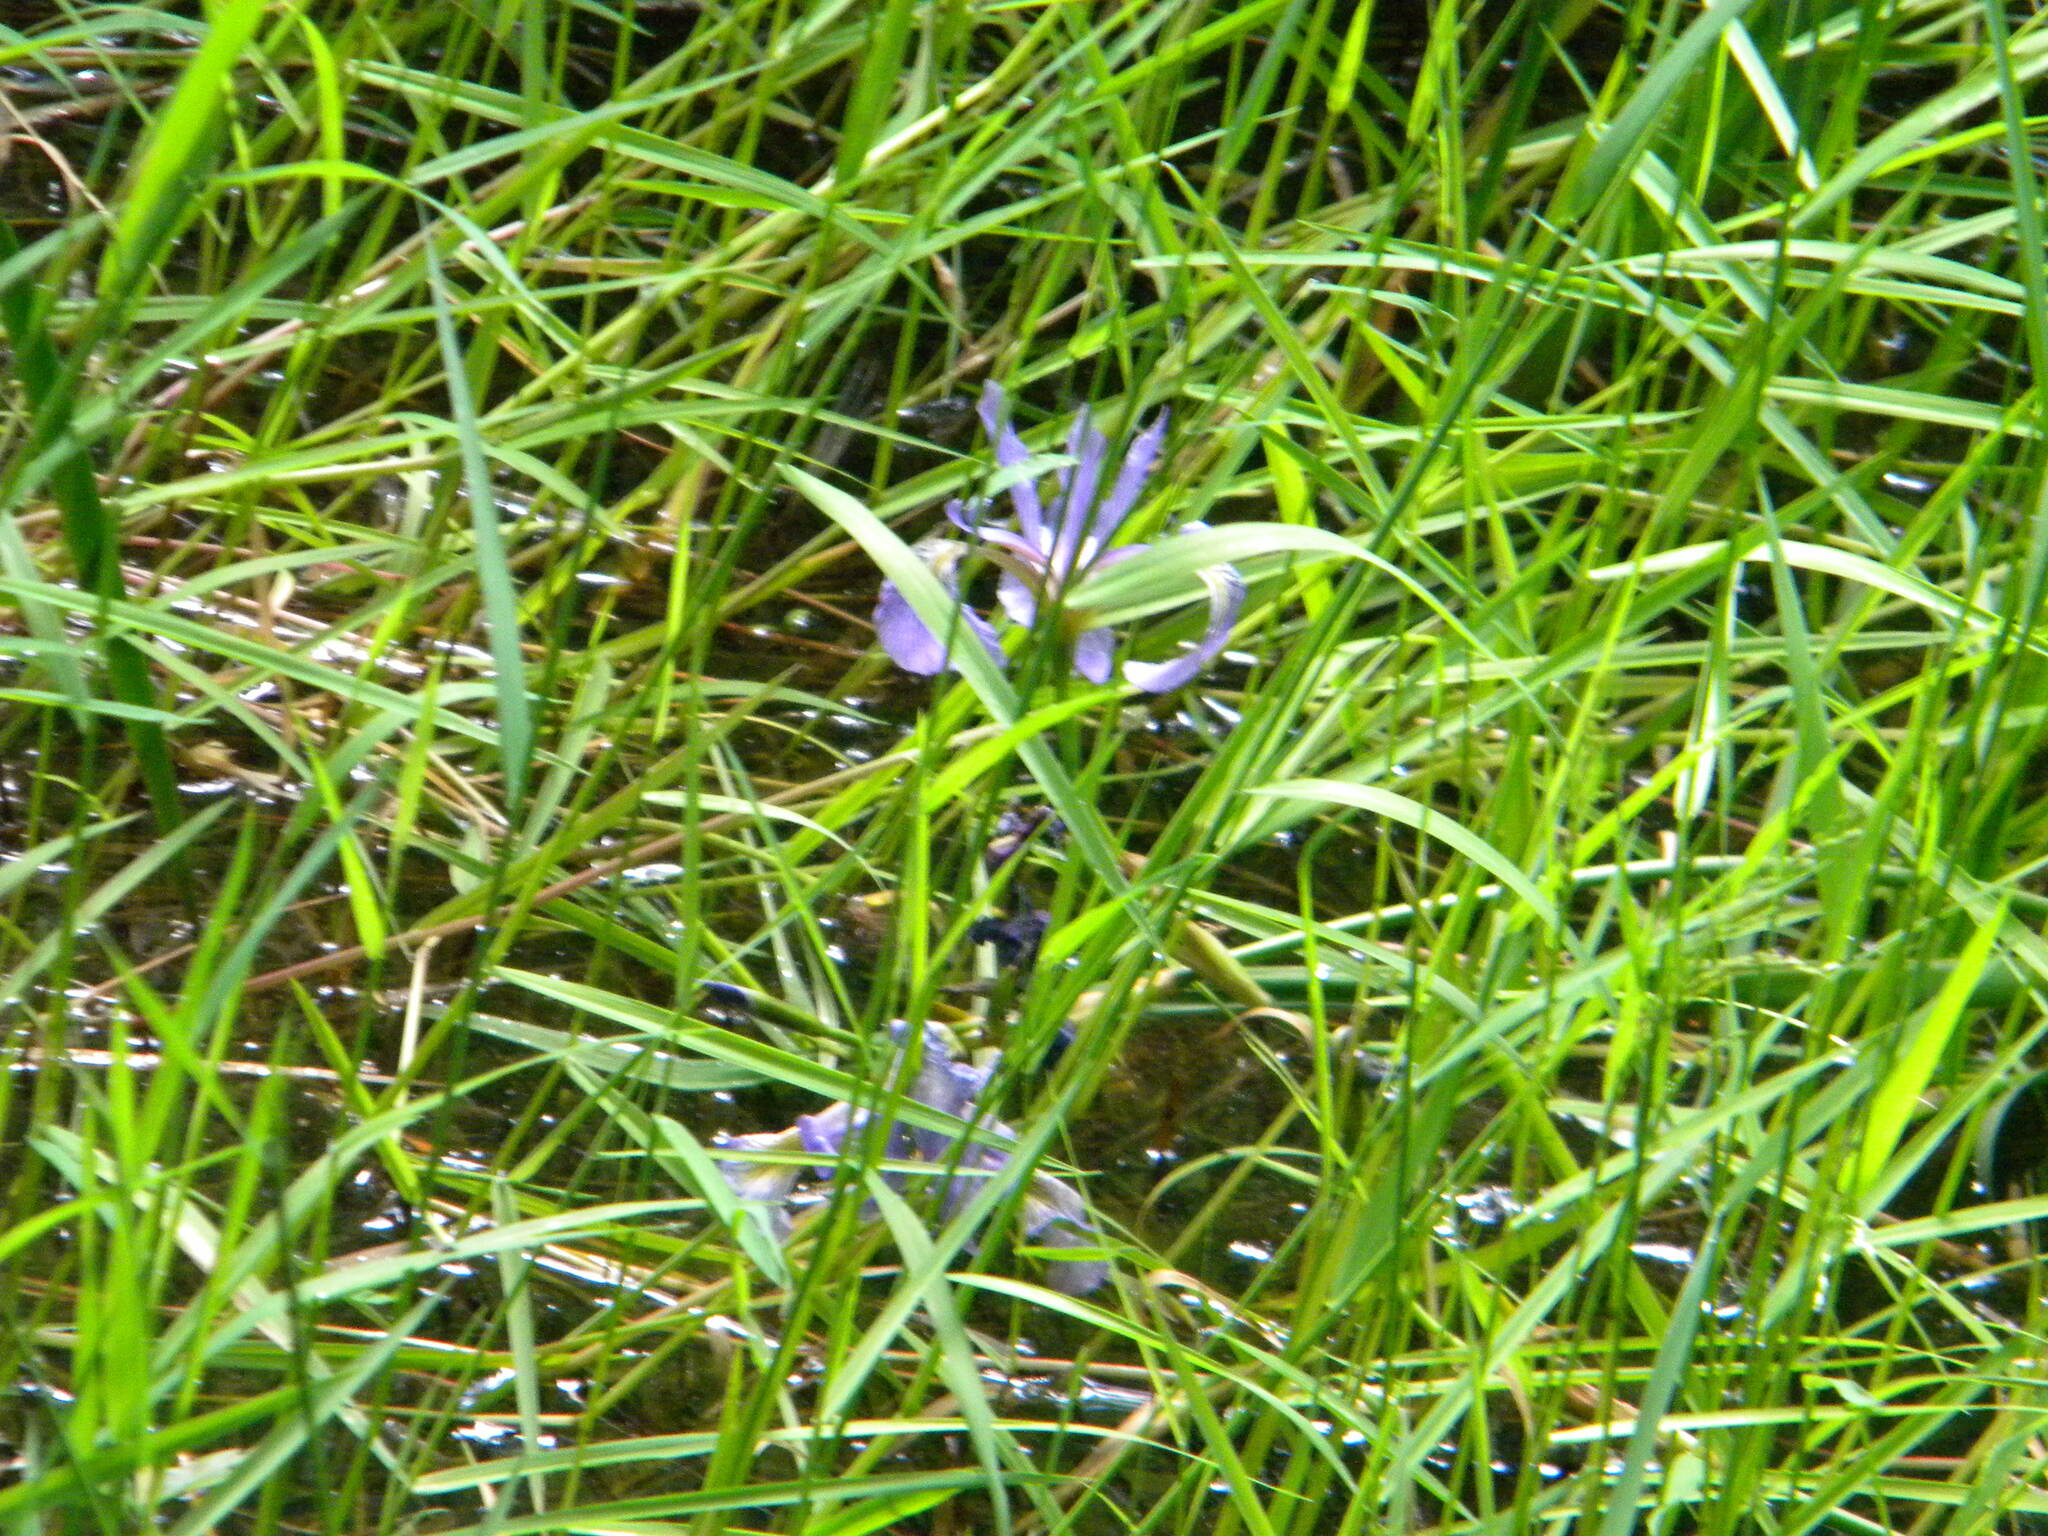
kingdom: Plantae
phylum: Tracheophyta
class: Liliopsida
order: Asparagales
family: Iridaceae
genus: Iris
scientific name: Iris versicolor
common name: Purple iris
